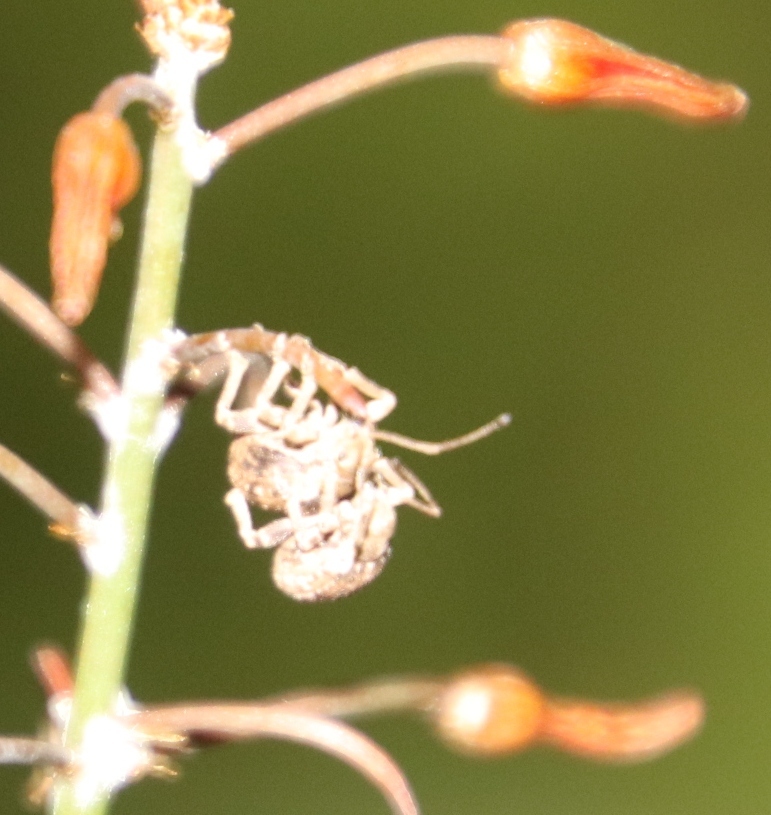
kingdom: Animalia
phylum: Arthropoda
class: Insecta
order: Coleoptera
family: Curculionidae
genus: Ellimenistes
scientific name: Ellimenistes laesicollis
